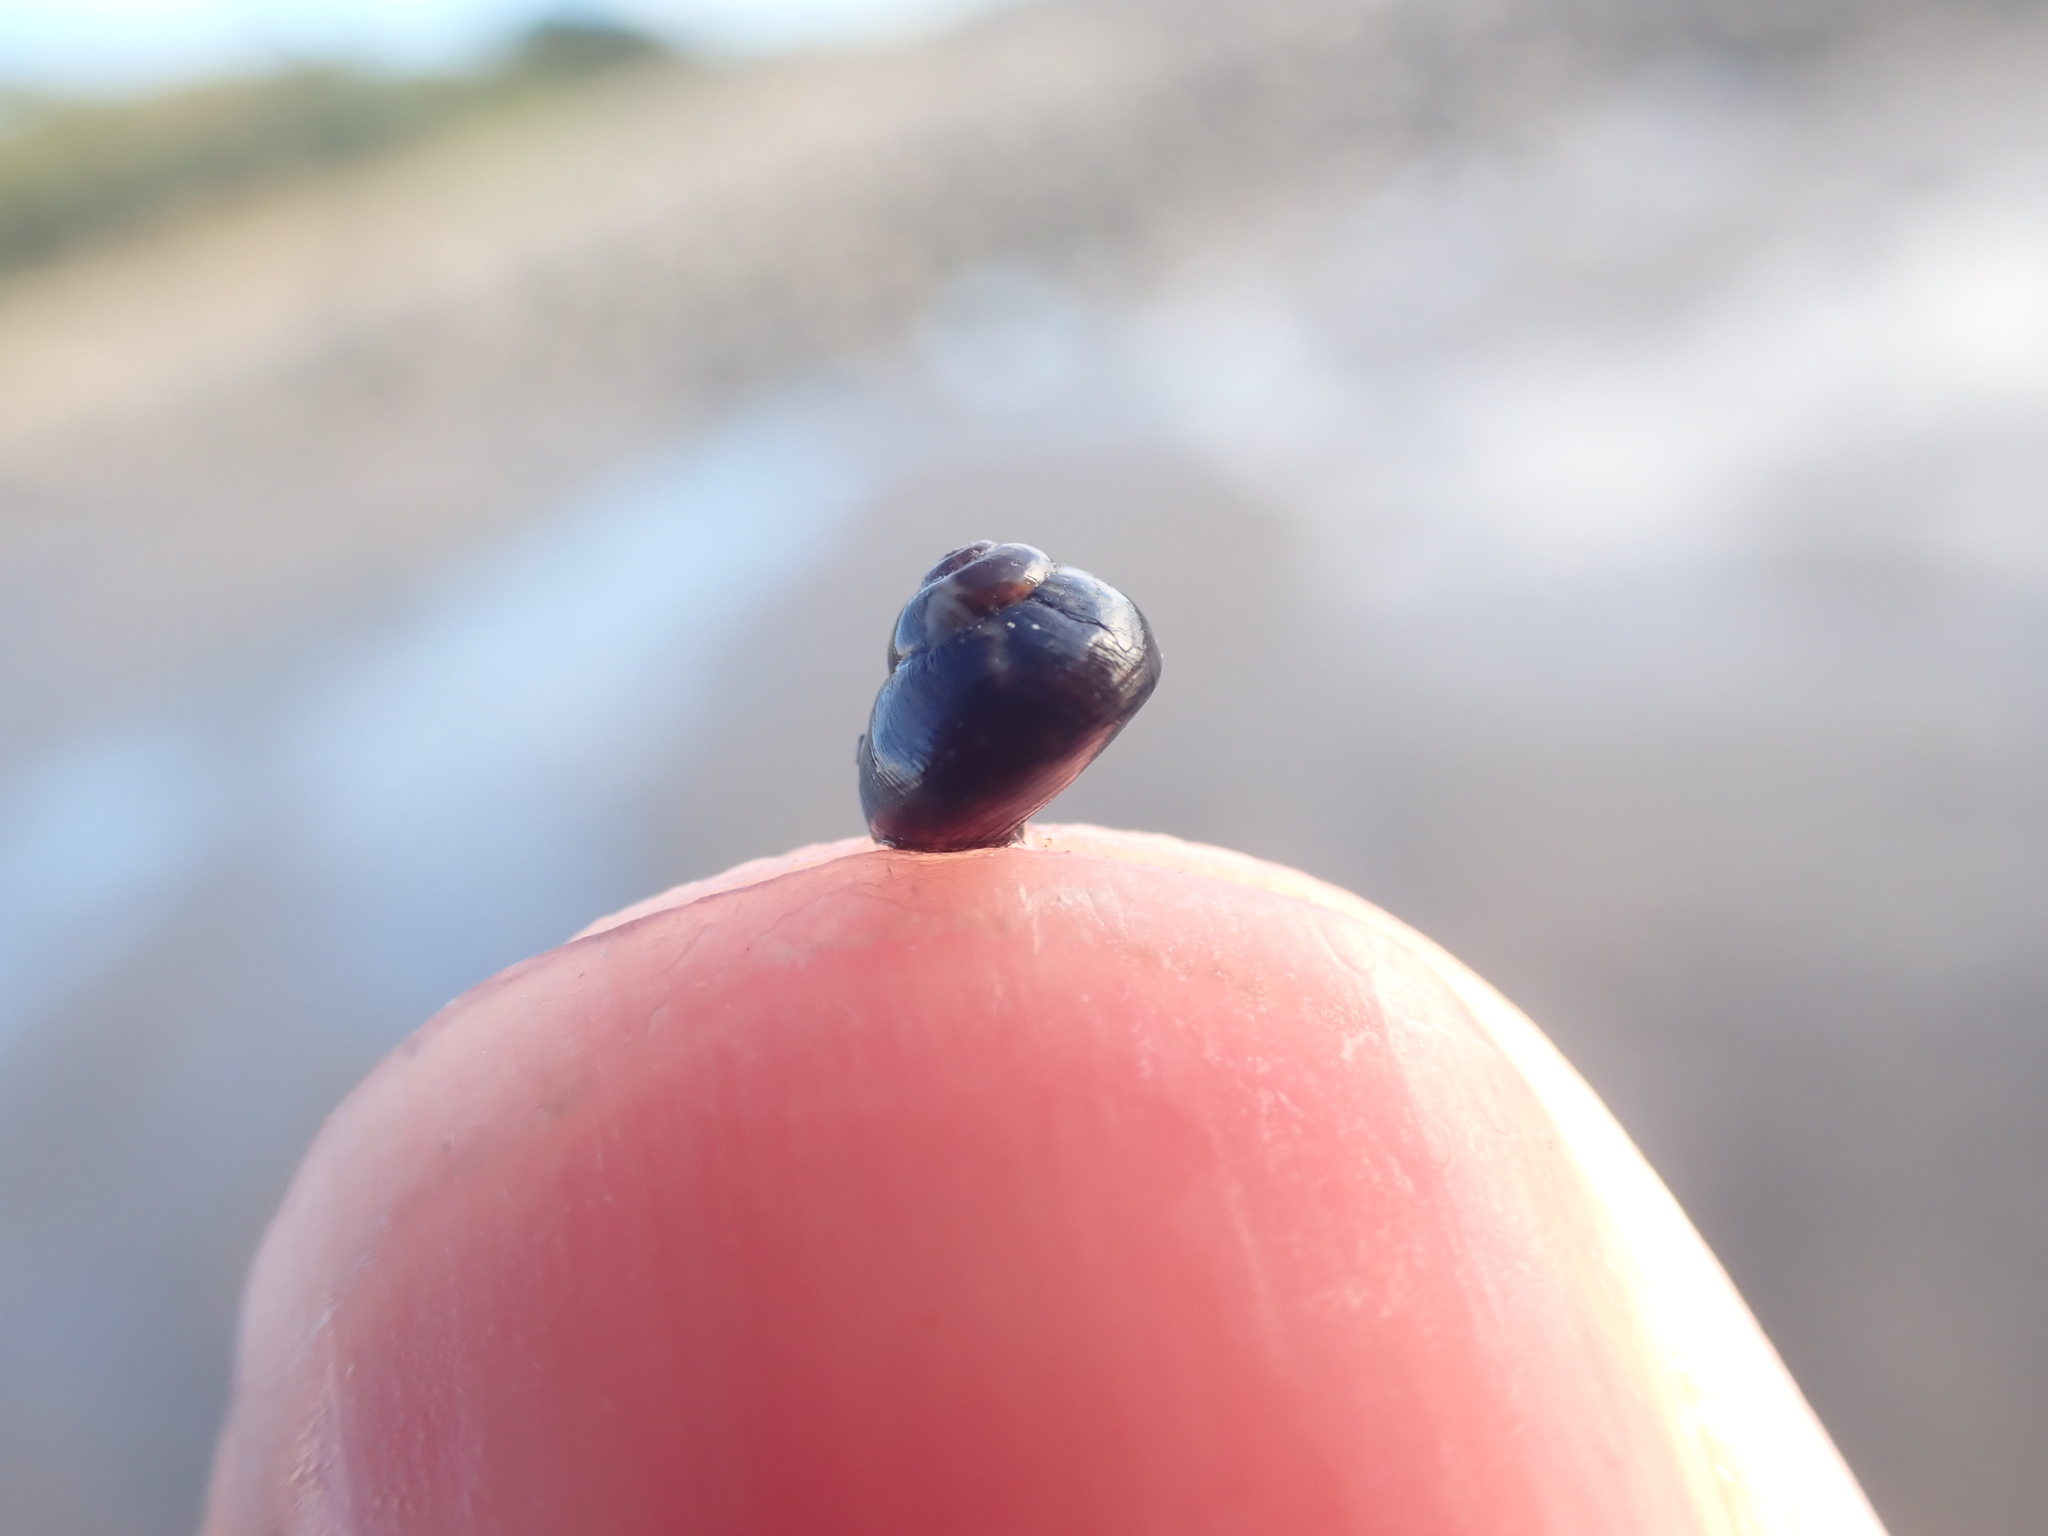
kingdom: Animalia
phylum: Mollusca
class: Gastropoda
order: Trochida
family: Trochidae
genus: Micrelenchus
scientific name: Micrelenchus tessellatus
